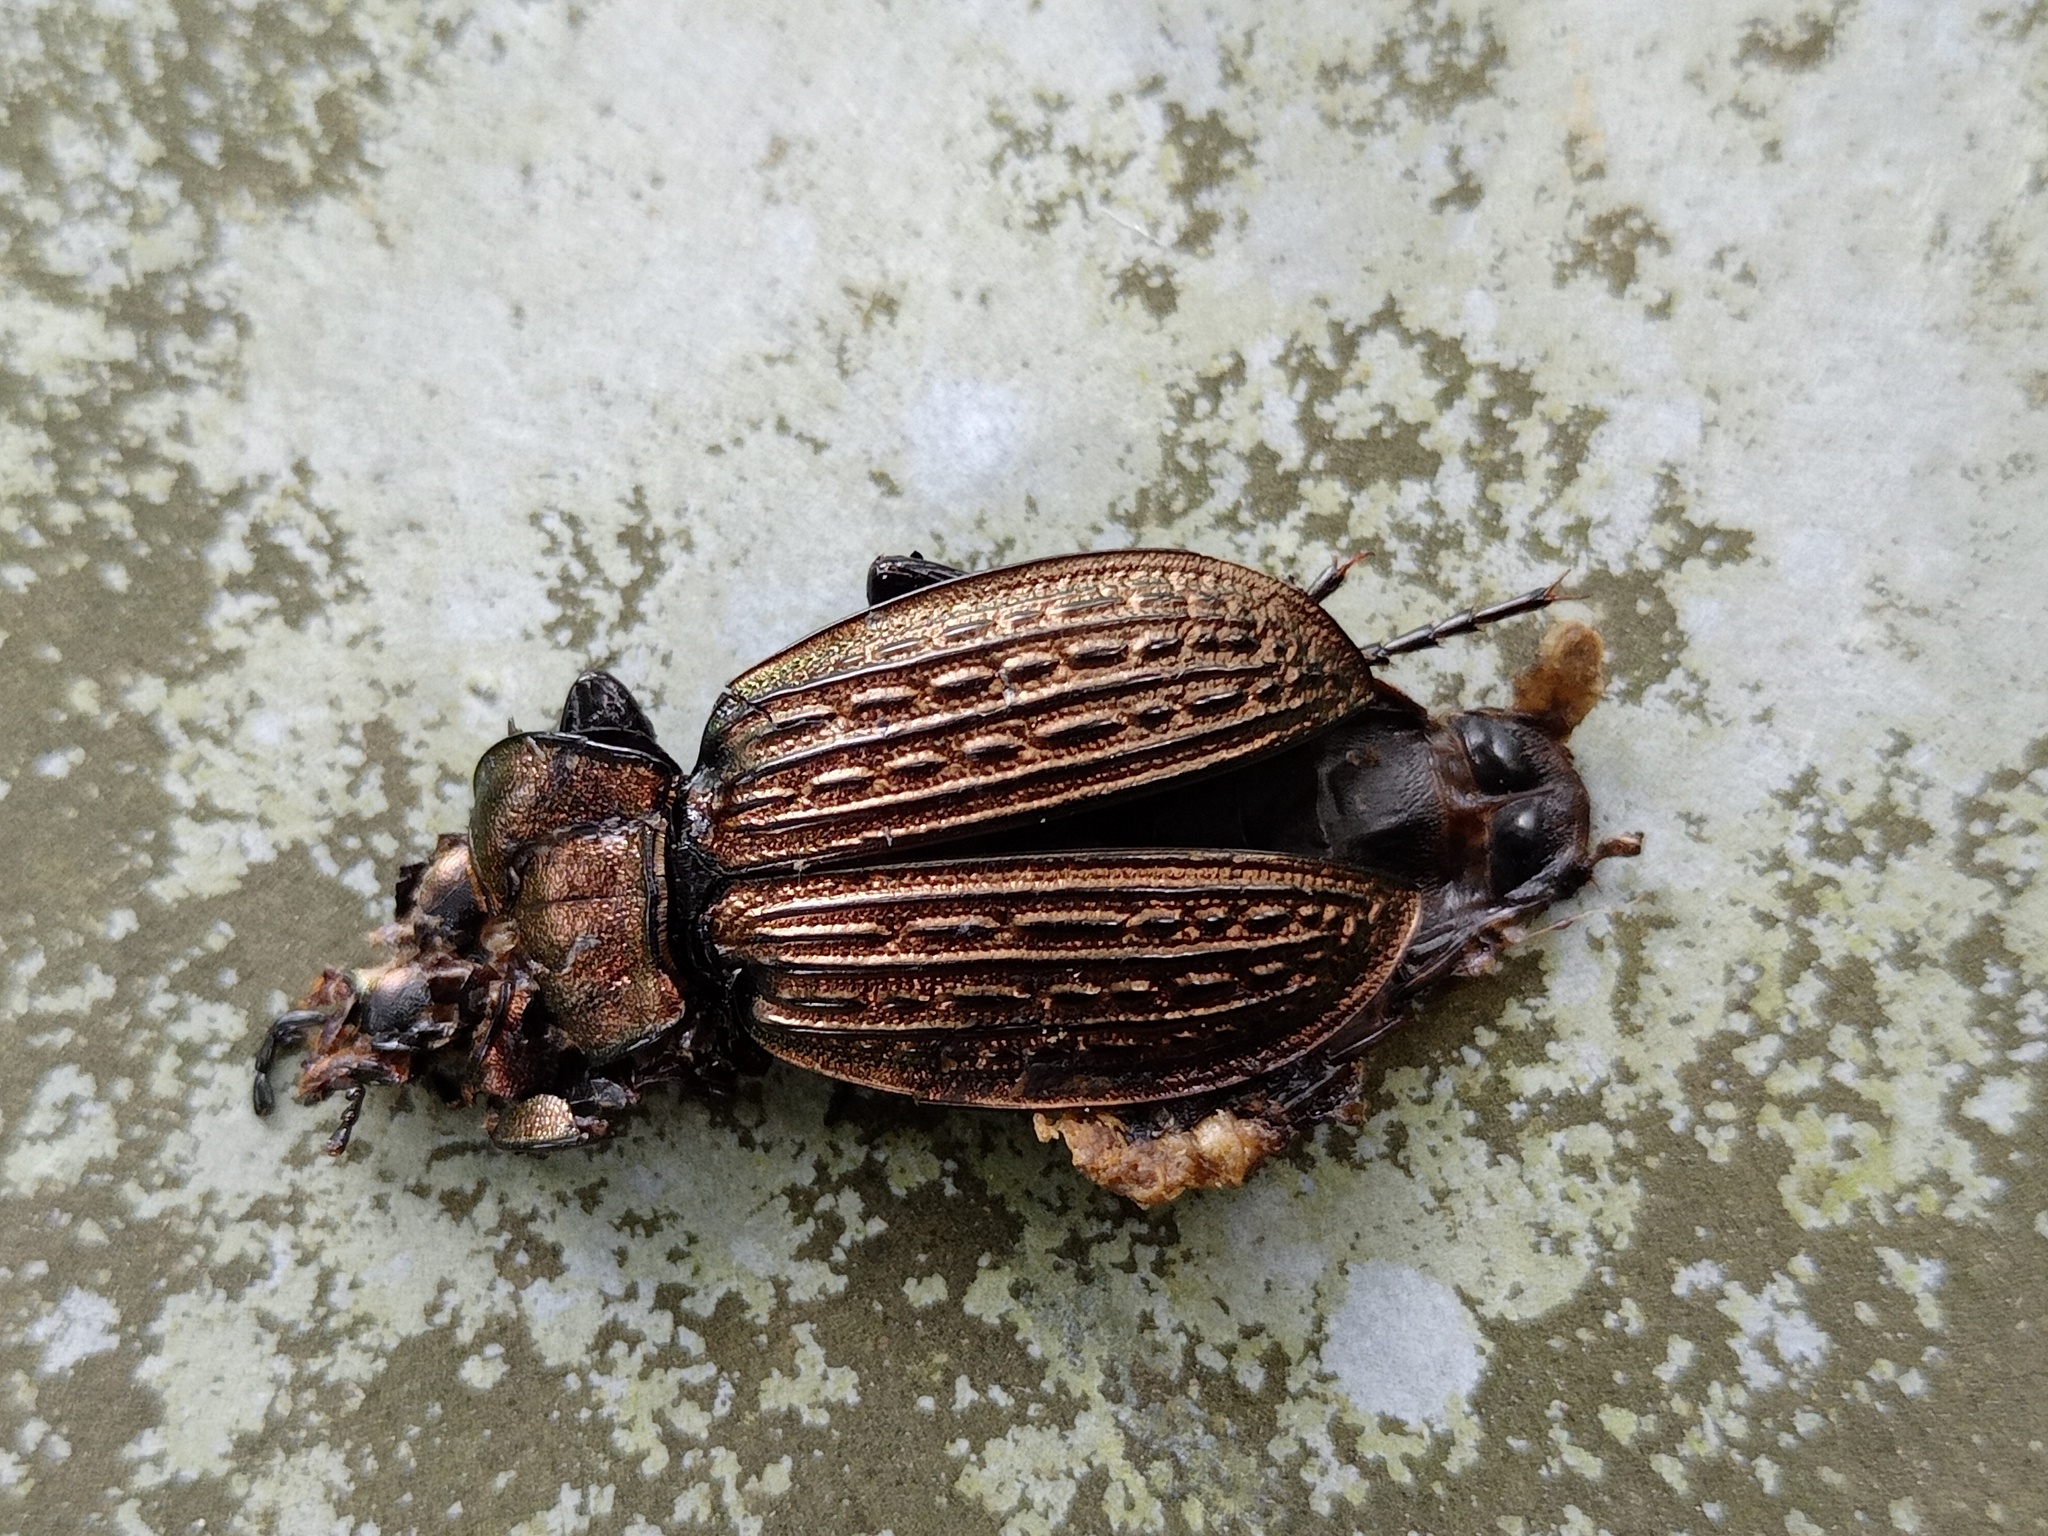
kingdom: Animalia
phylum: Arthropoda
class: Insecta
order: Coleoptera
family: Carabidae
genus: Carabus
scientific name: Carabus ulrichii
